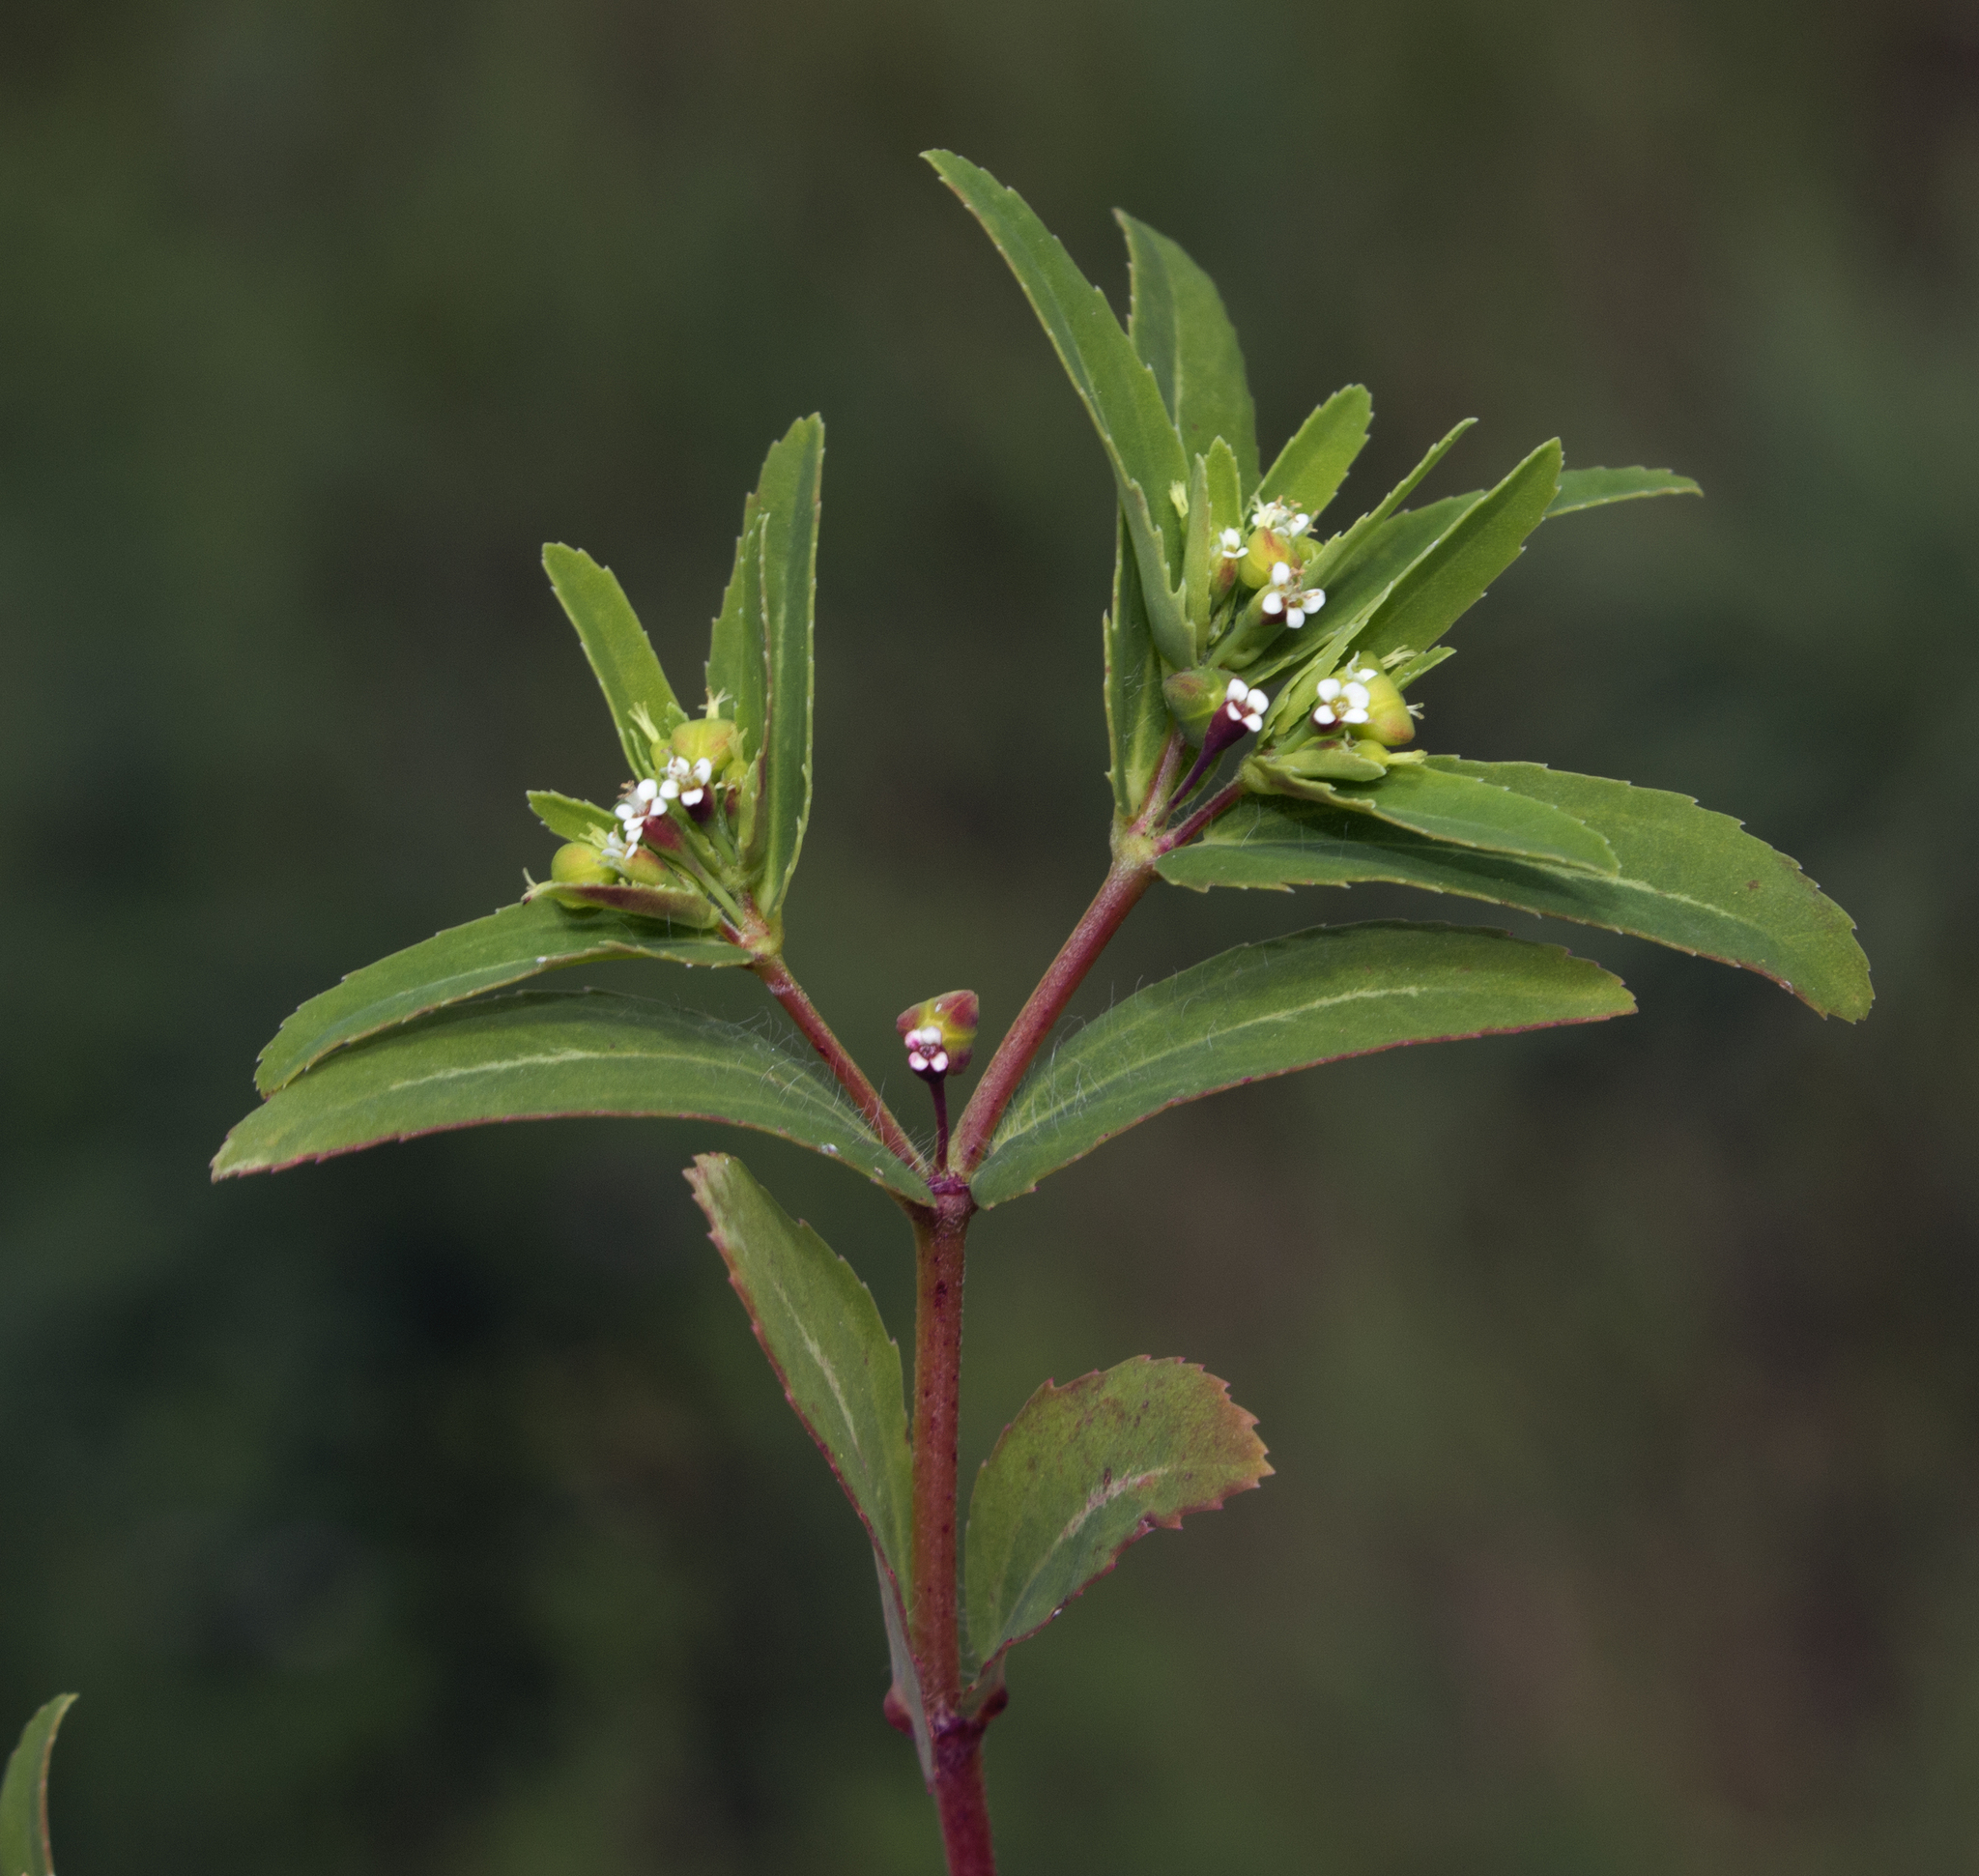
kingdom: Plantae
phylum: Tracheophyta
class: Magnoliopsida
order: Malpighiales
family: Euphorbiaceae
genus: Euphorbia
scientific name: Euphorbia nutans
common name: Eyebane
